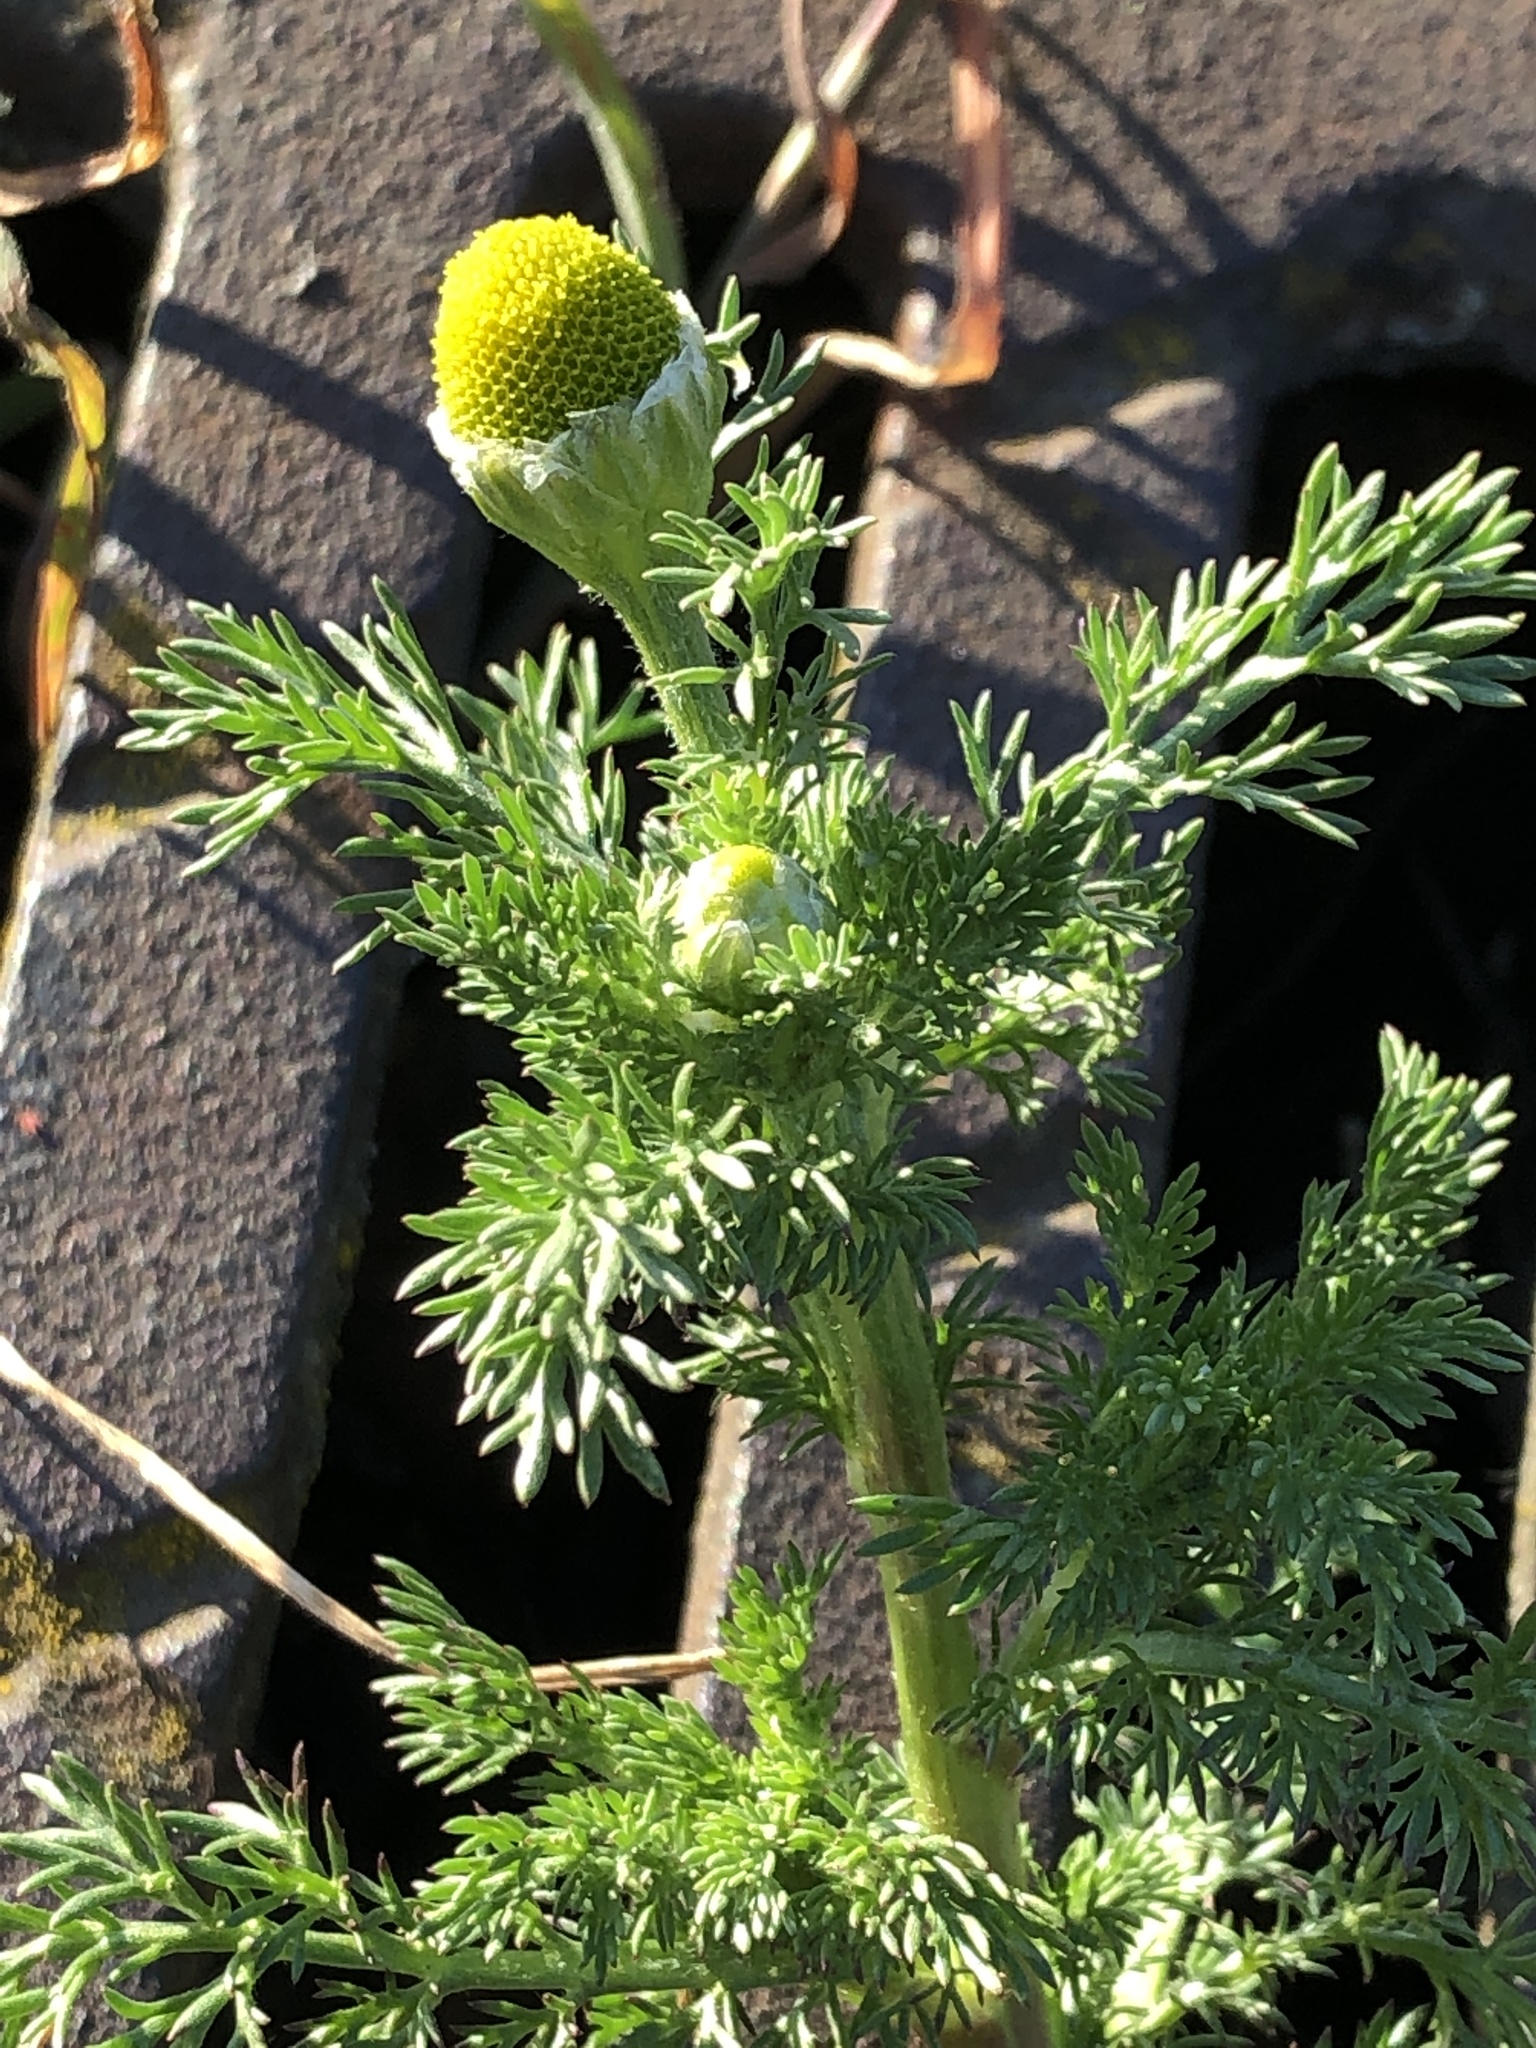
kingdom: Plantae
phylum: Tracheophyta
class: Magnoliopsida
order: Asterales
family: Asteraceae
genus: Matricaria
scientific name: Matricaria discoidea
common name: Disc mayweed
